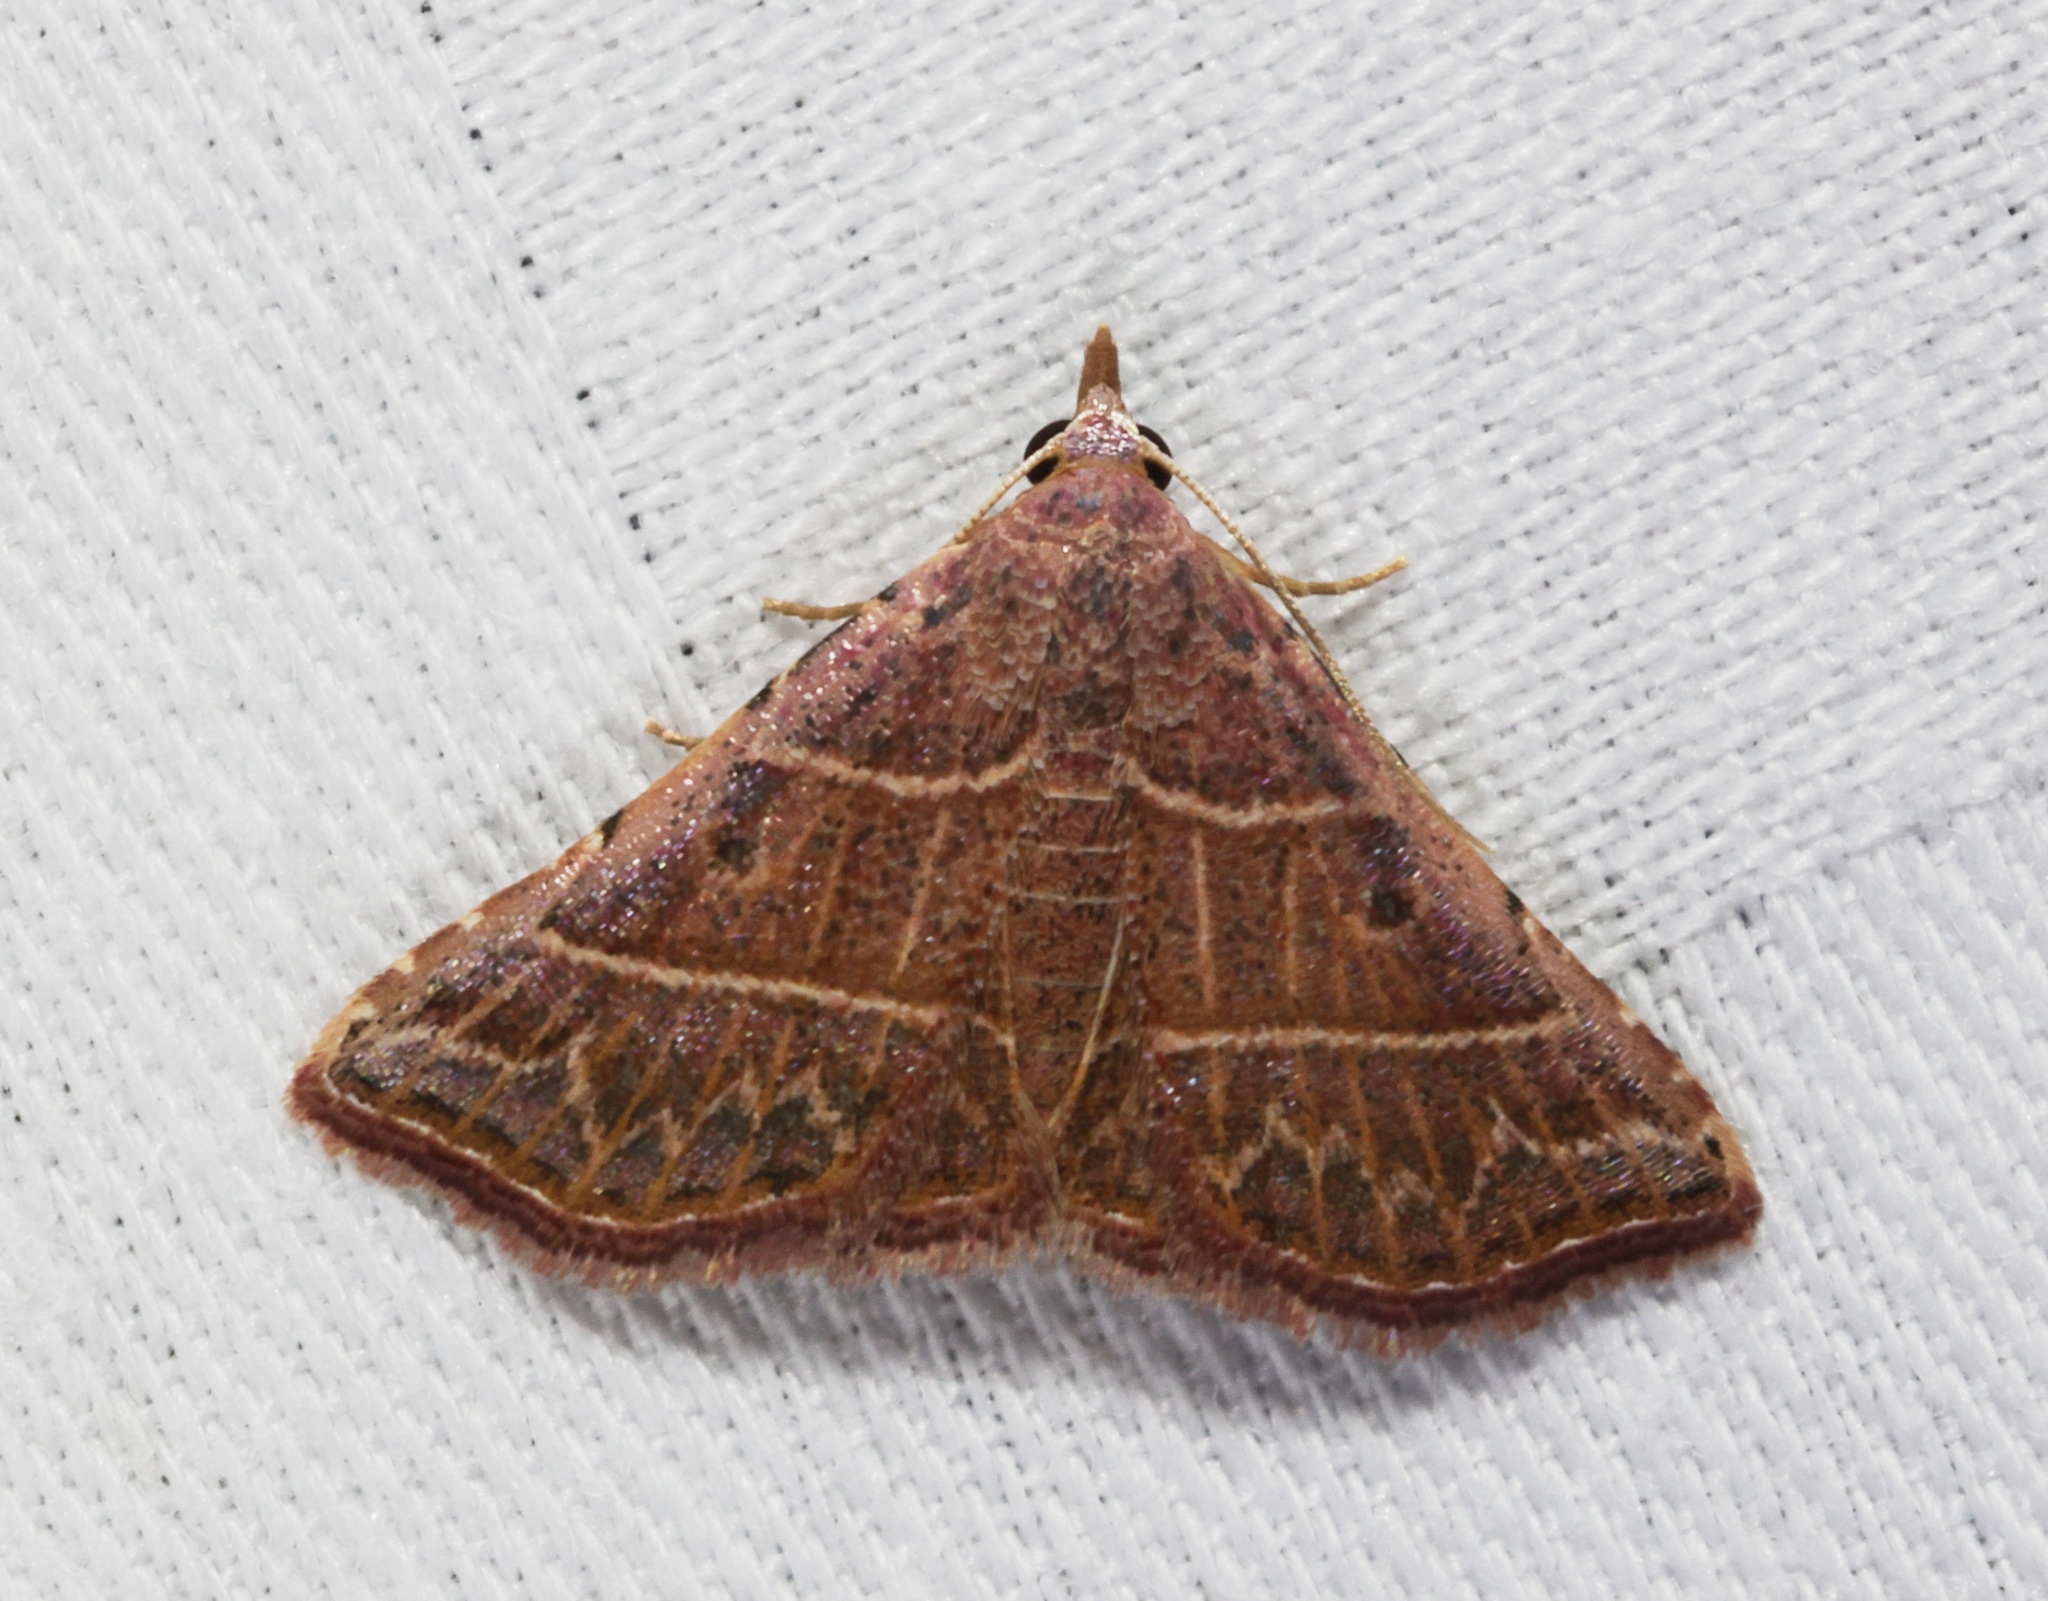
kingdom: Animalia
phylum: Arthropoda
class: Insecta
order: Lepidoptera
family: Erebidae
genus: Corgatha
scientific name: Corgatha dictaria
